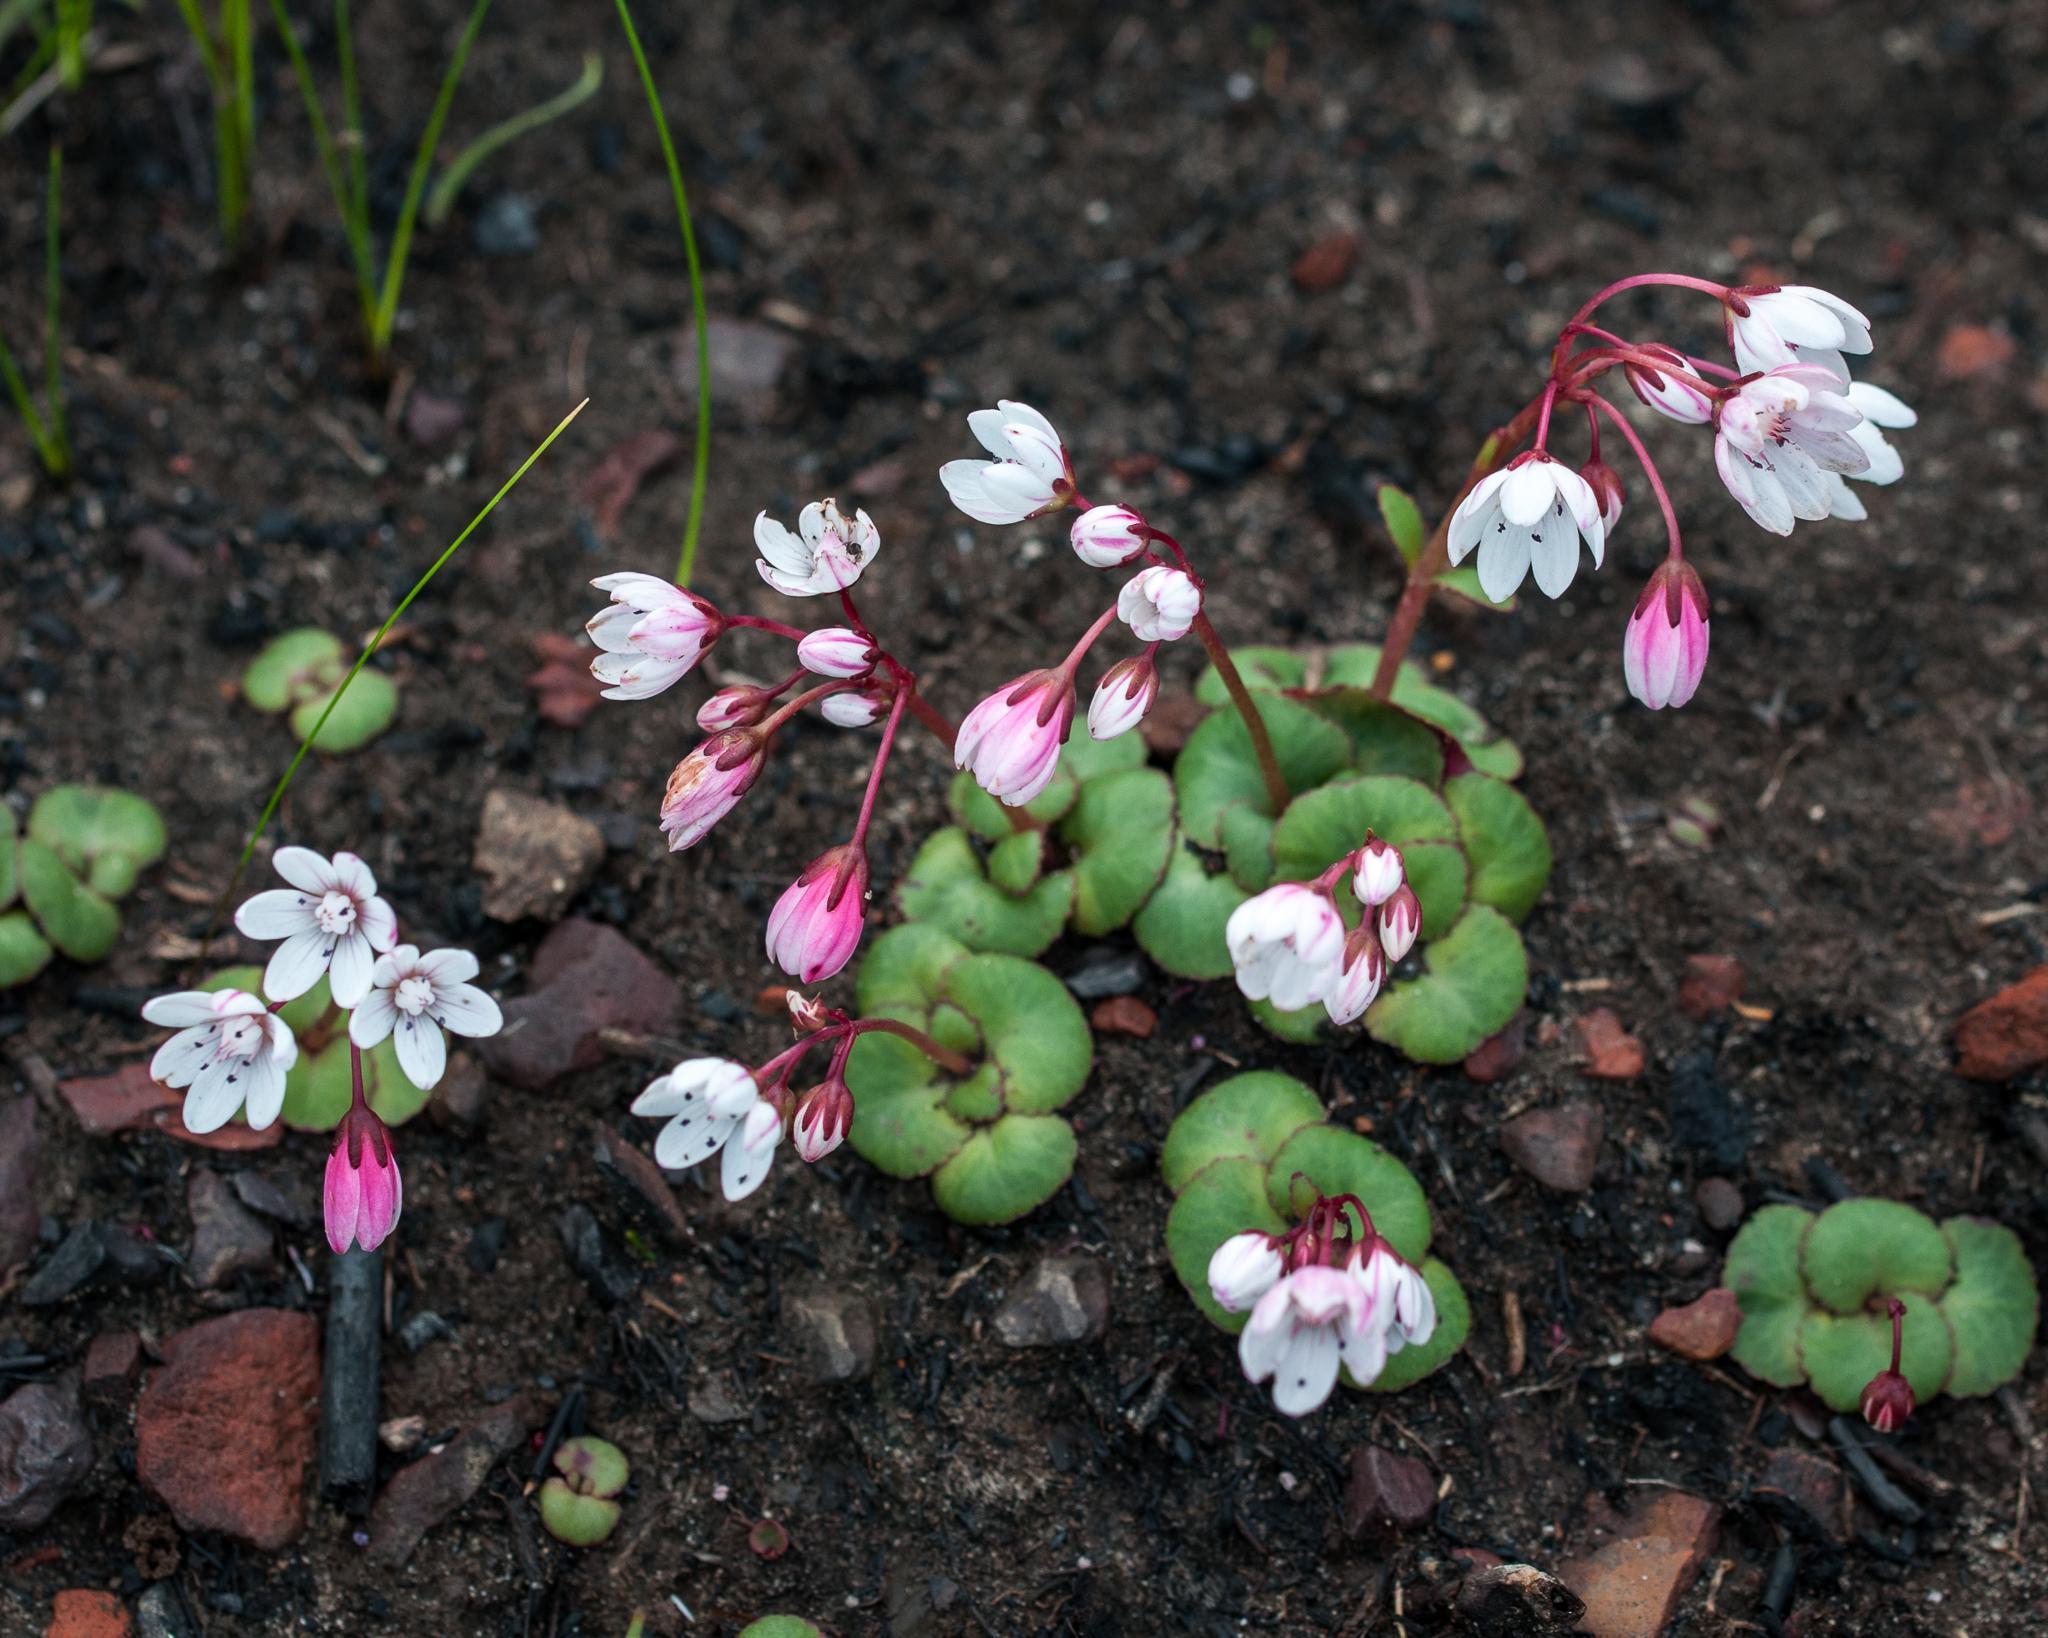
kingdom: Plantae
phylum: Tracheophyta
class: Magnoliopsida
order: Saxifragales
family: Crassulaceae
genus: Crassula
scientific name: Crassula capensis
